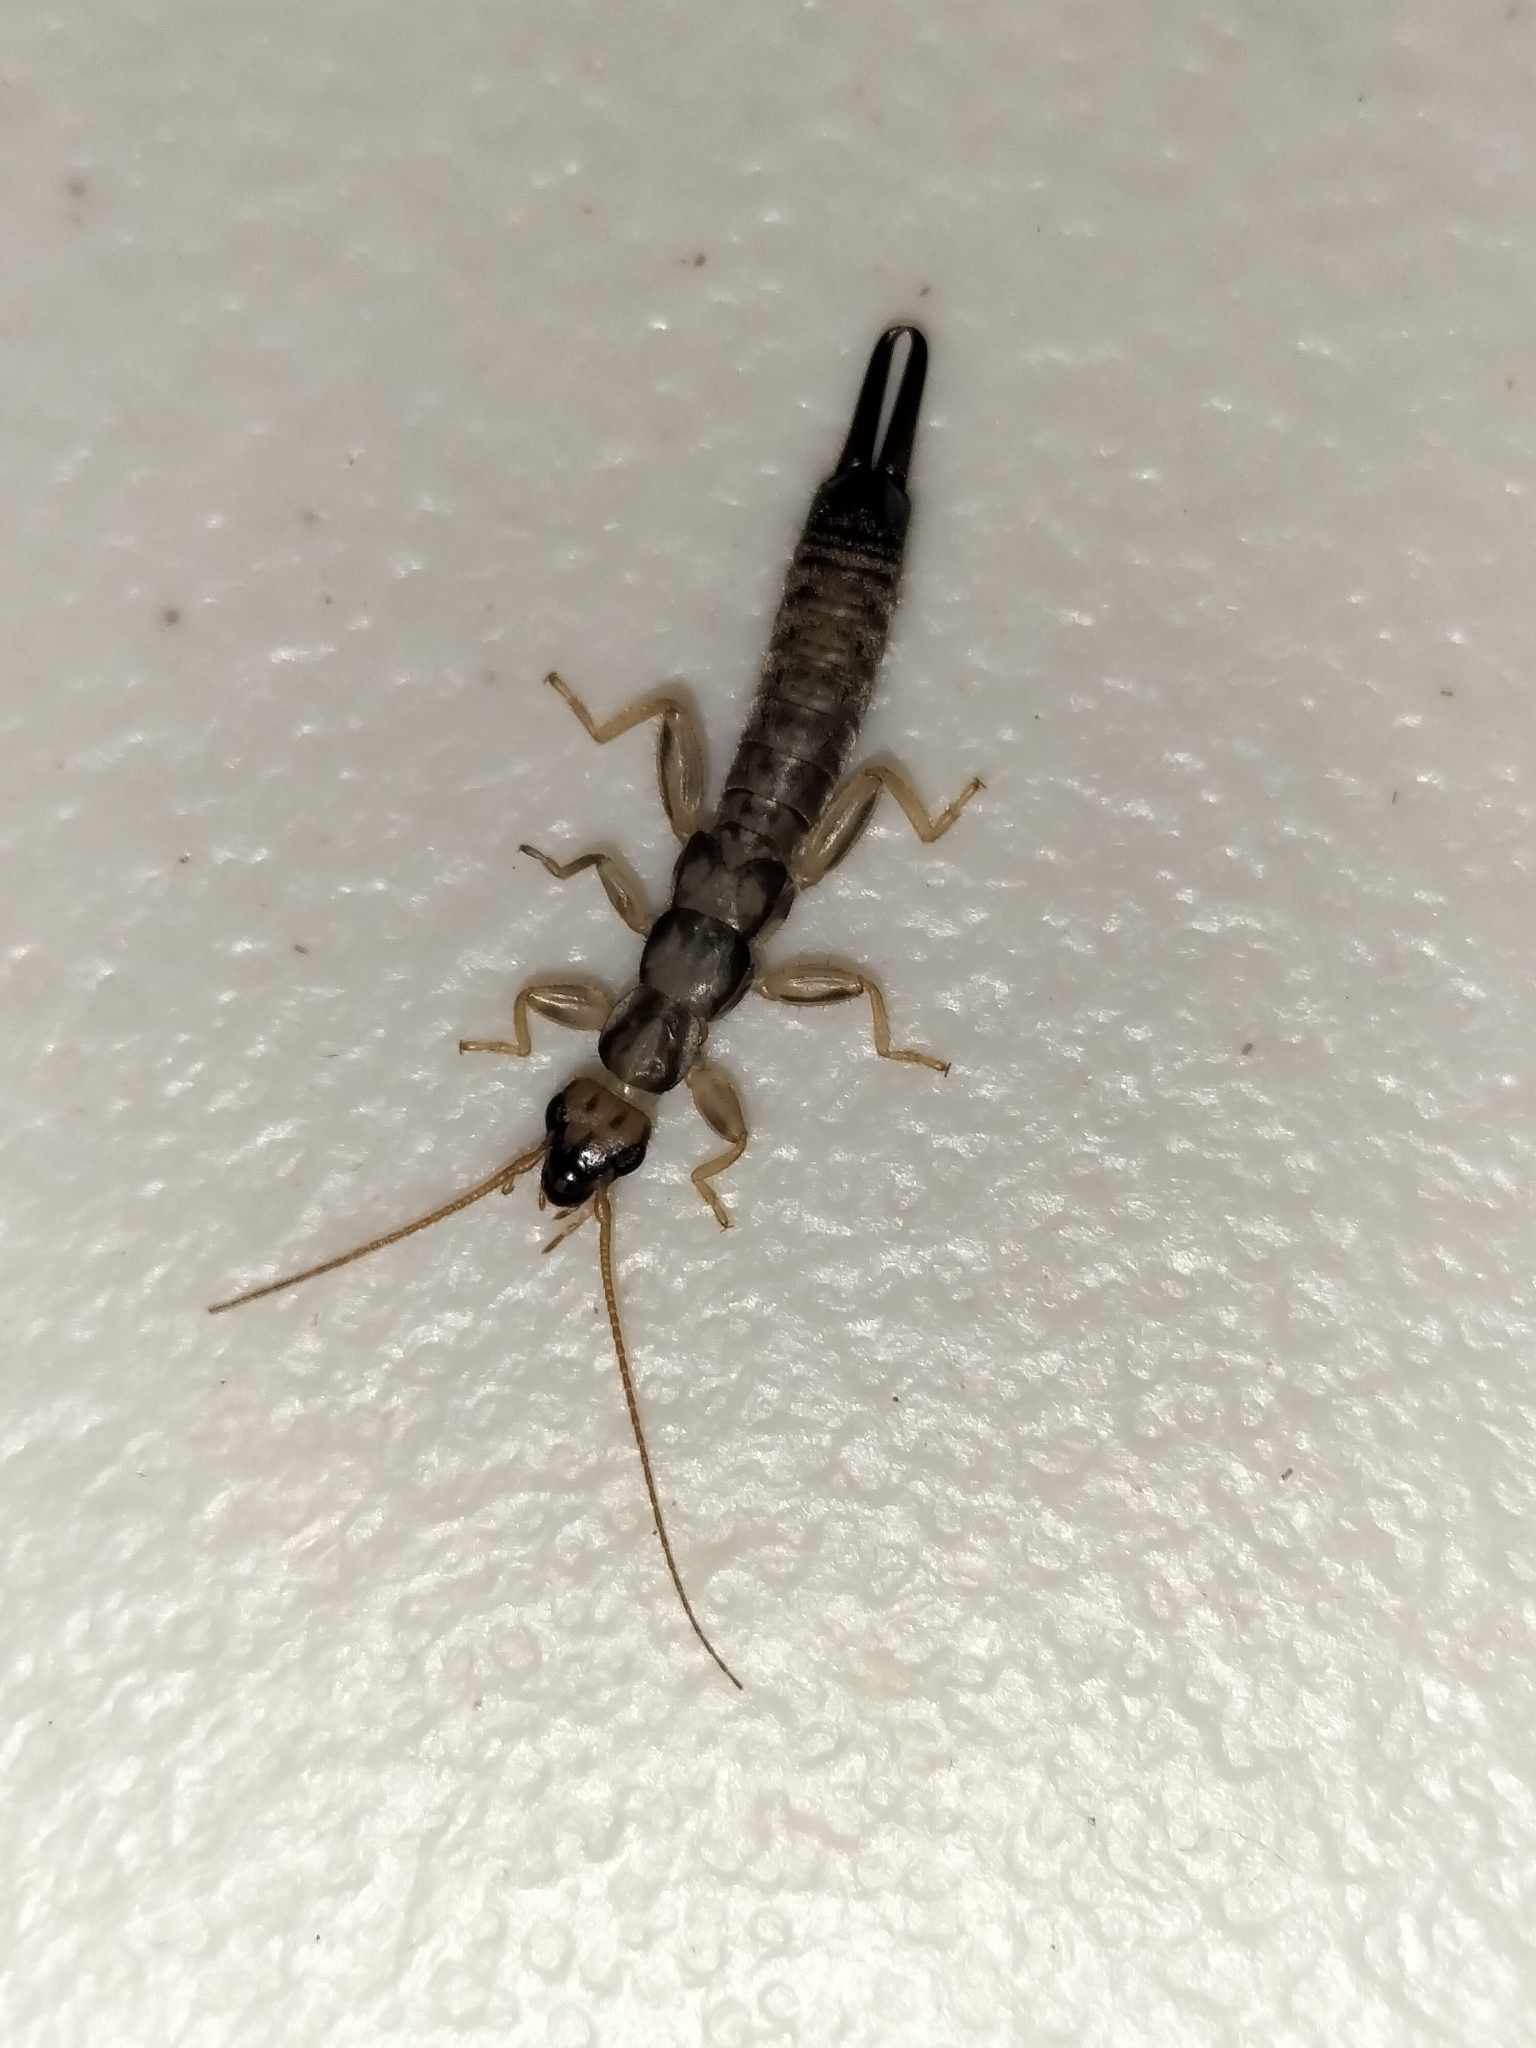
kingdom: Animalia
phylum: Arthropoda
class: Insecta
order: Dermaptera
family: Pygidicranidae
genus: Cranopygia
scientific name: Cranopygia daemeli
